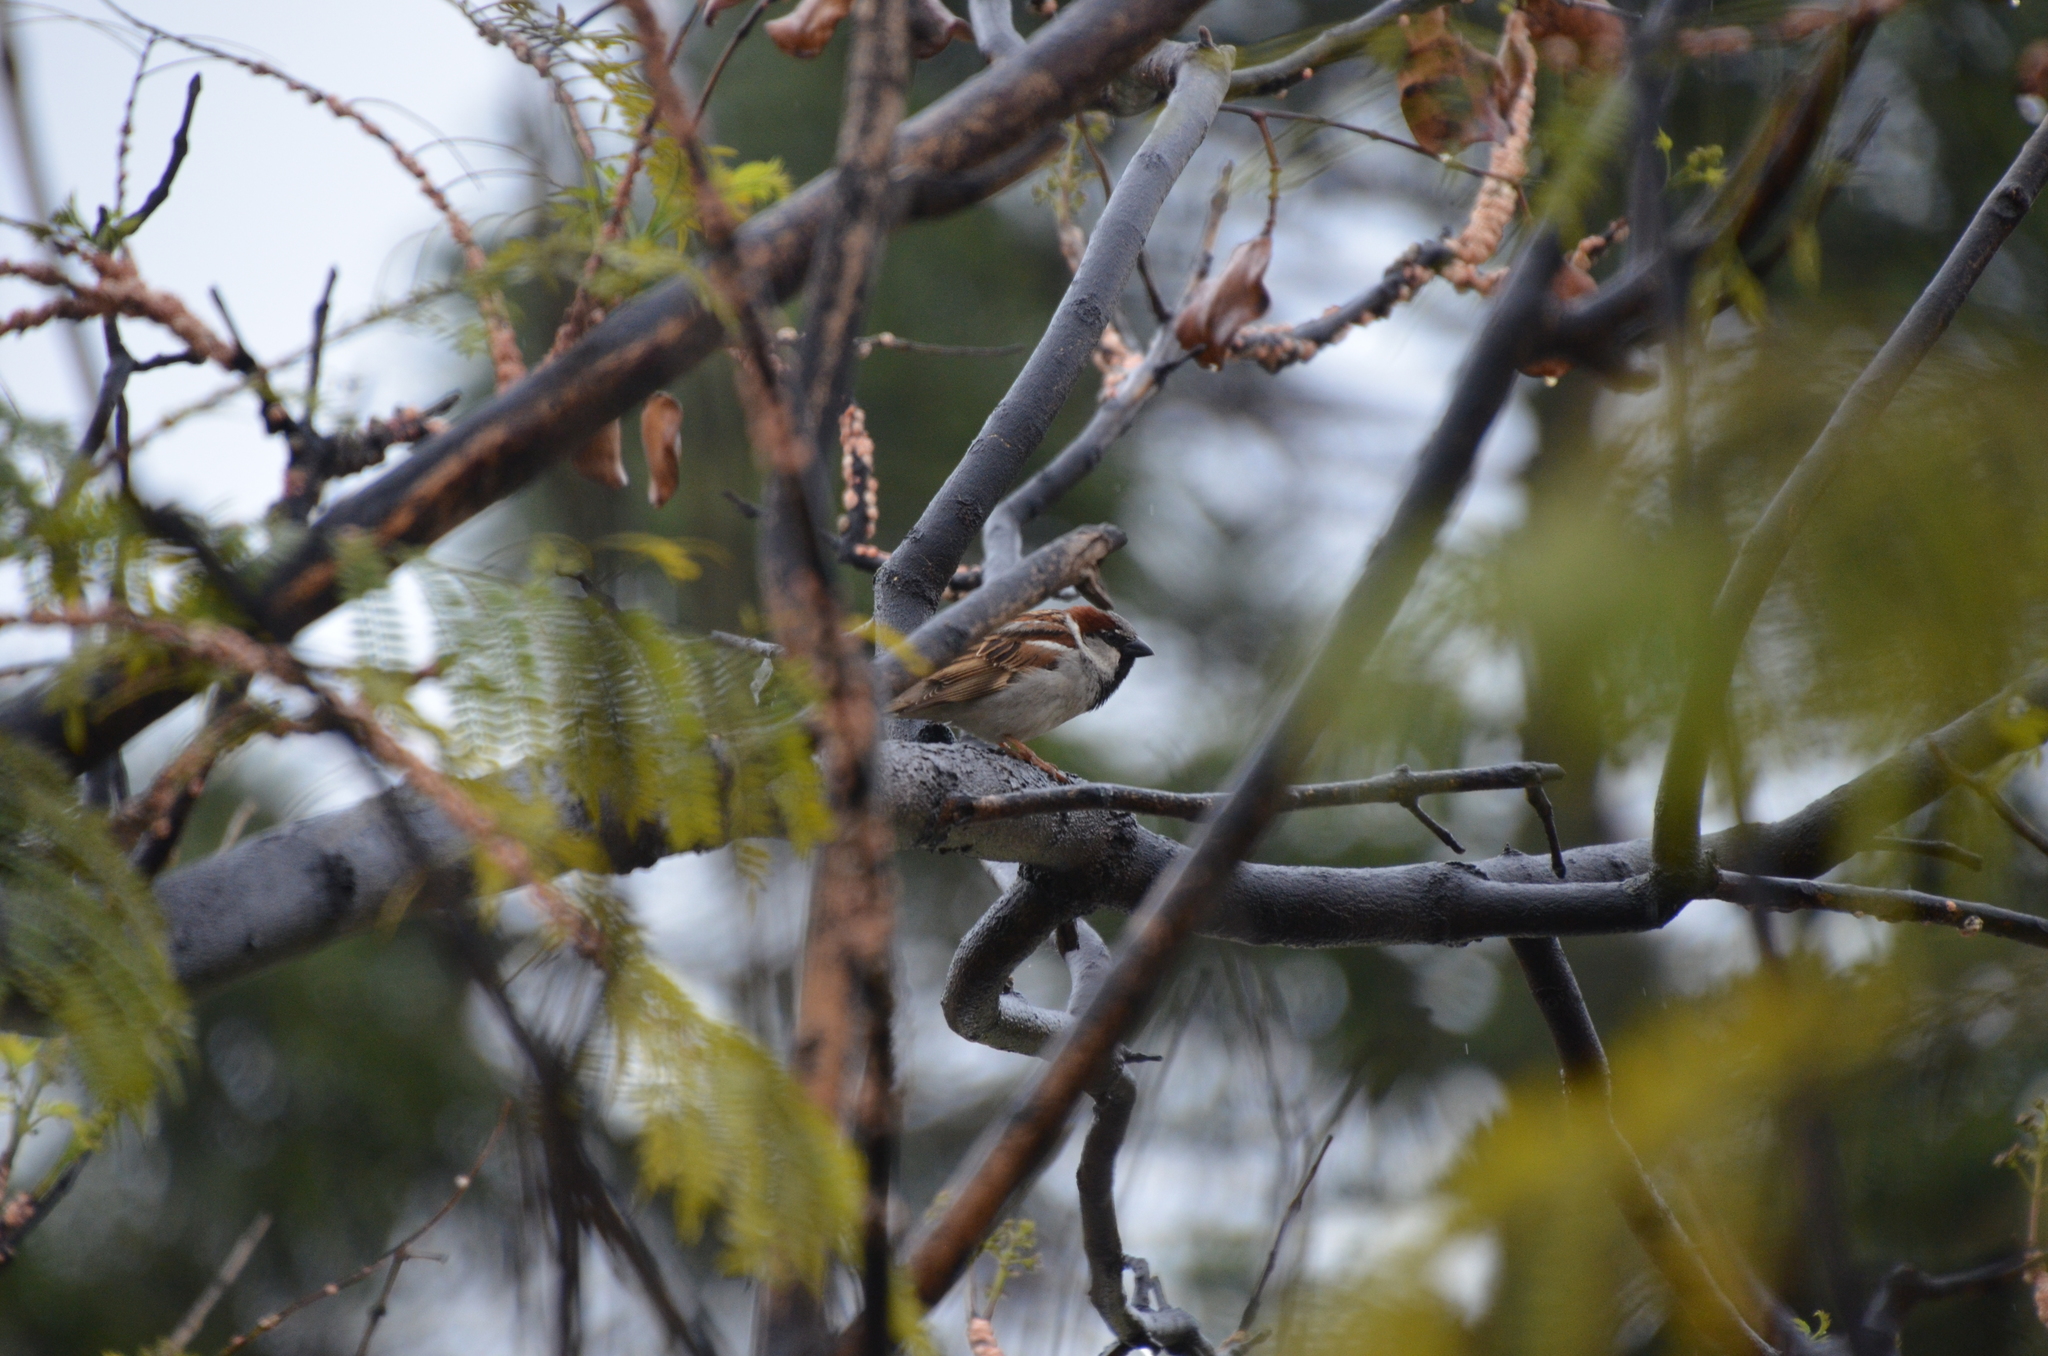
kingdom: Animalia
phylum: Chordata
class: Aves
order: Passeriformes
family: Passeridae
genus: Passer
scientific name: Passer domesticus
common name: House sparrow
